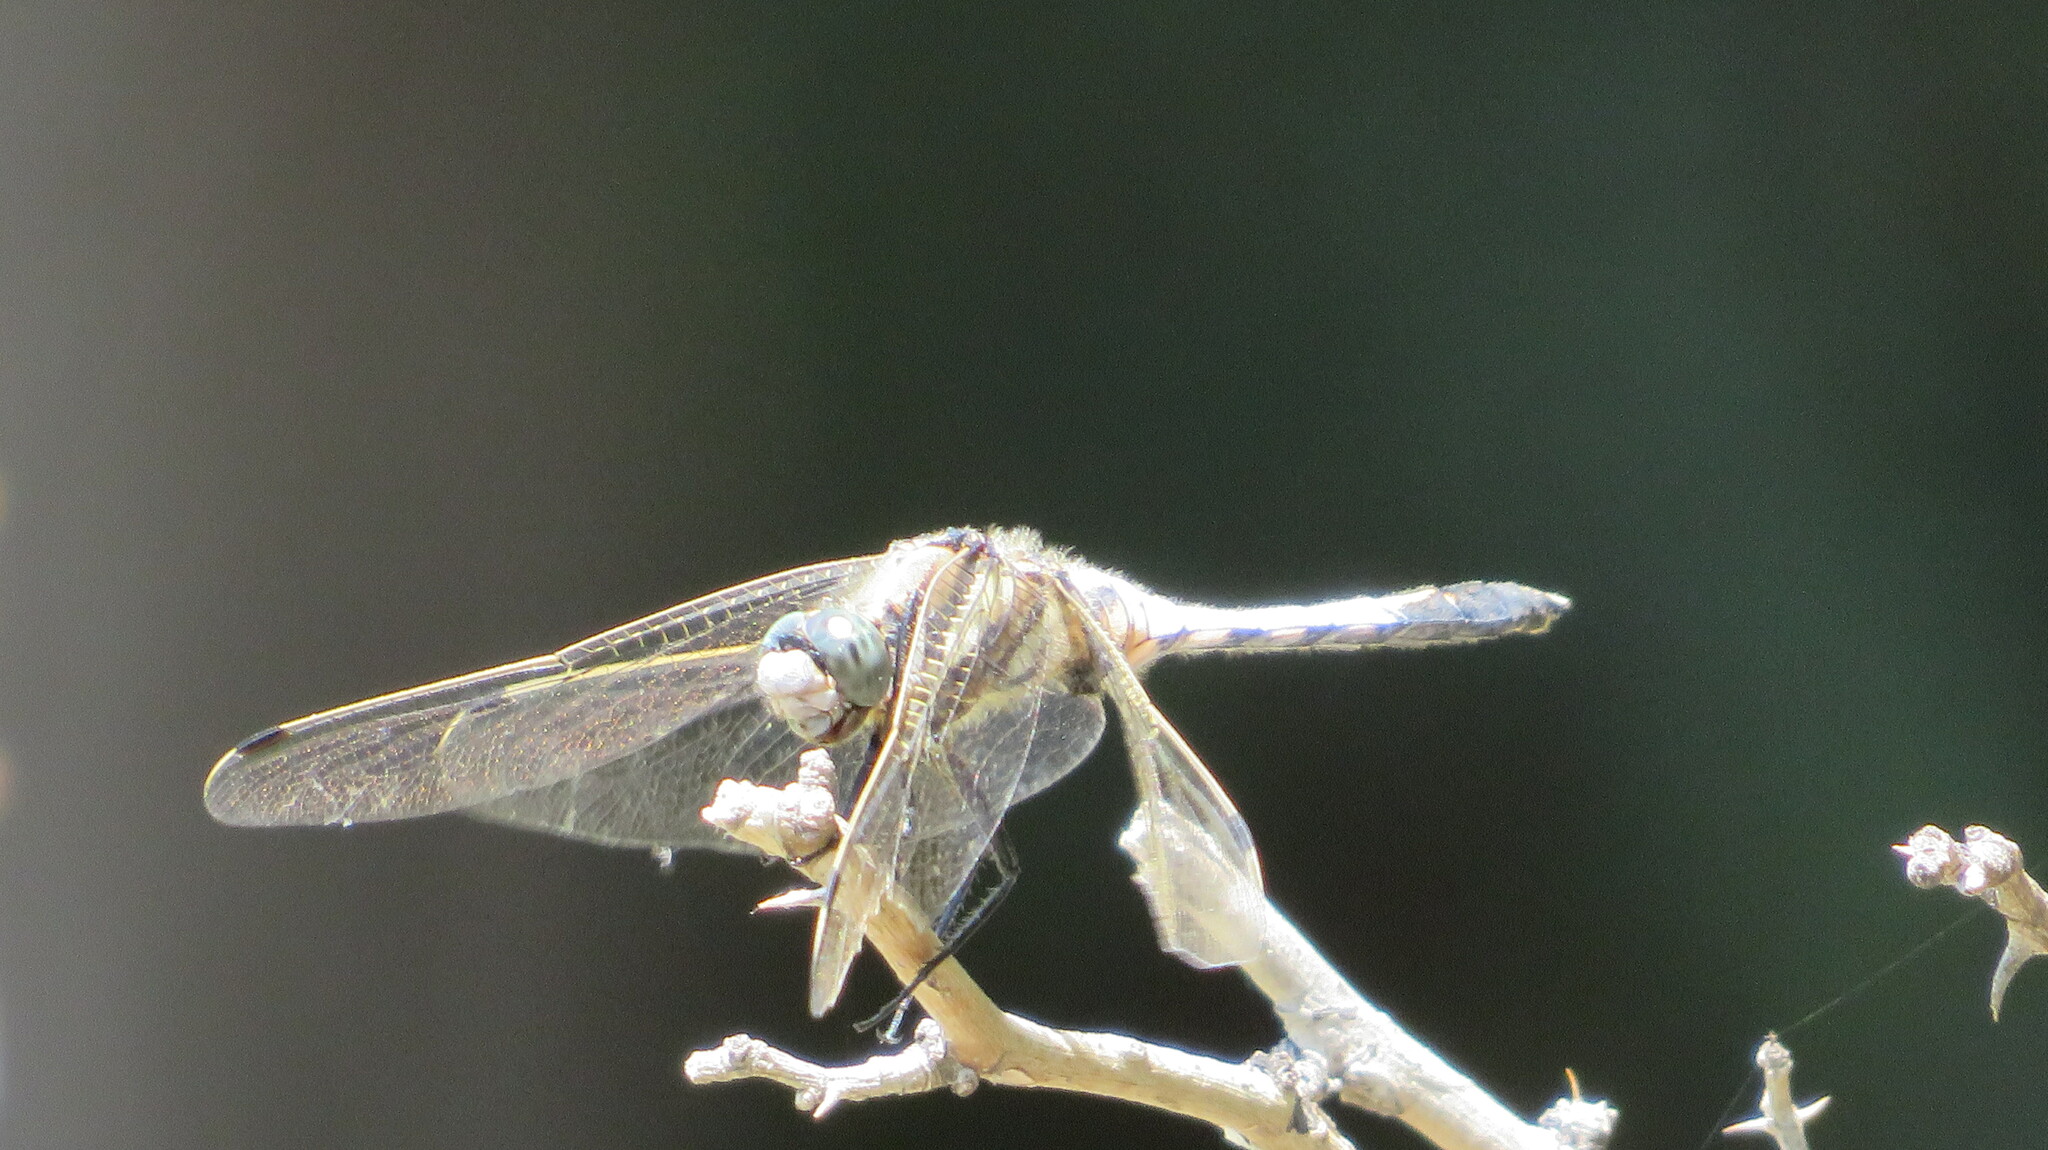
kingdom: Animalia
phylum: Arthropoda
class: Insecta
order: Odonata
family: Libellulidae
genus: Orthetrum
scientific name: Orthetrum albistylum
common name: White-tailed skimmer
